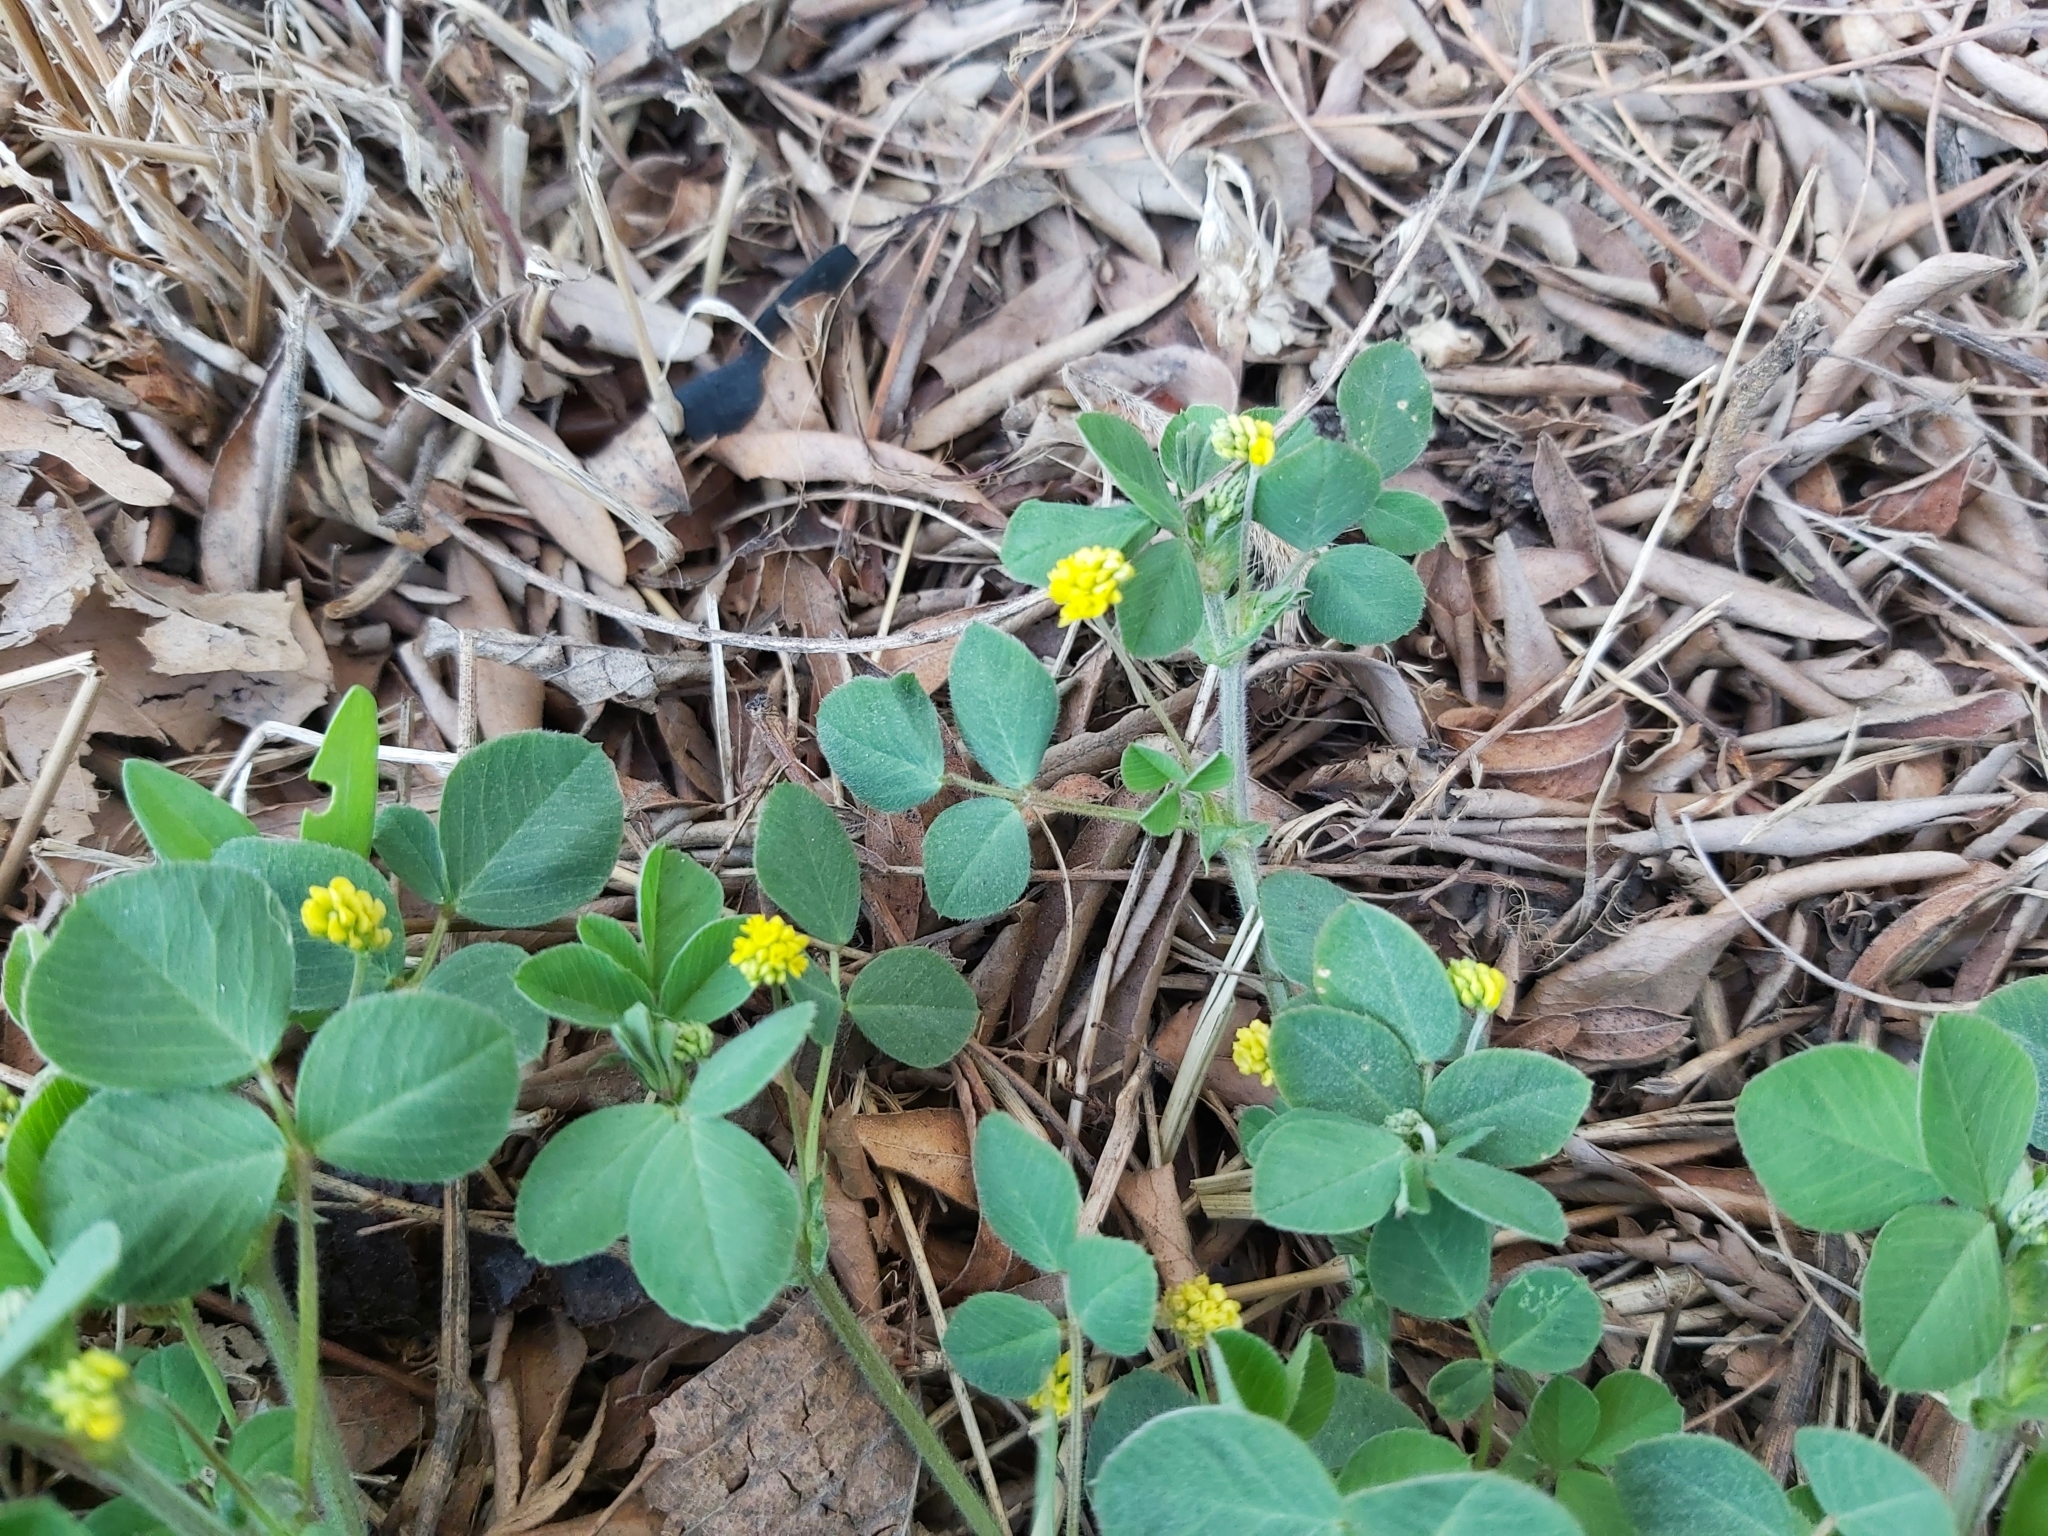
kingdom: Plantae
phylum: Tracheophyta
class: Magnoliopsida
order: Fabales
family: Fabaceae
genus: Medicago
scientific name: Medicago lupulina
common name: Black medick
